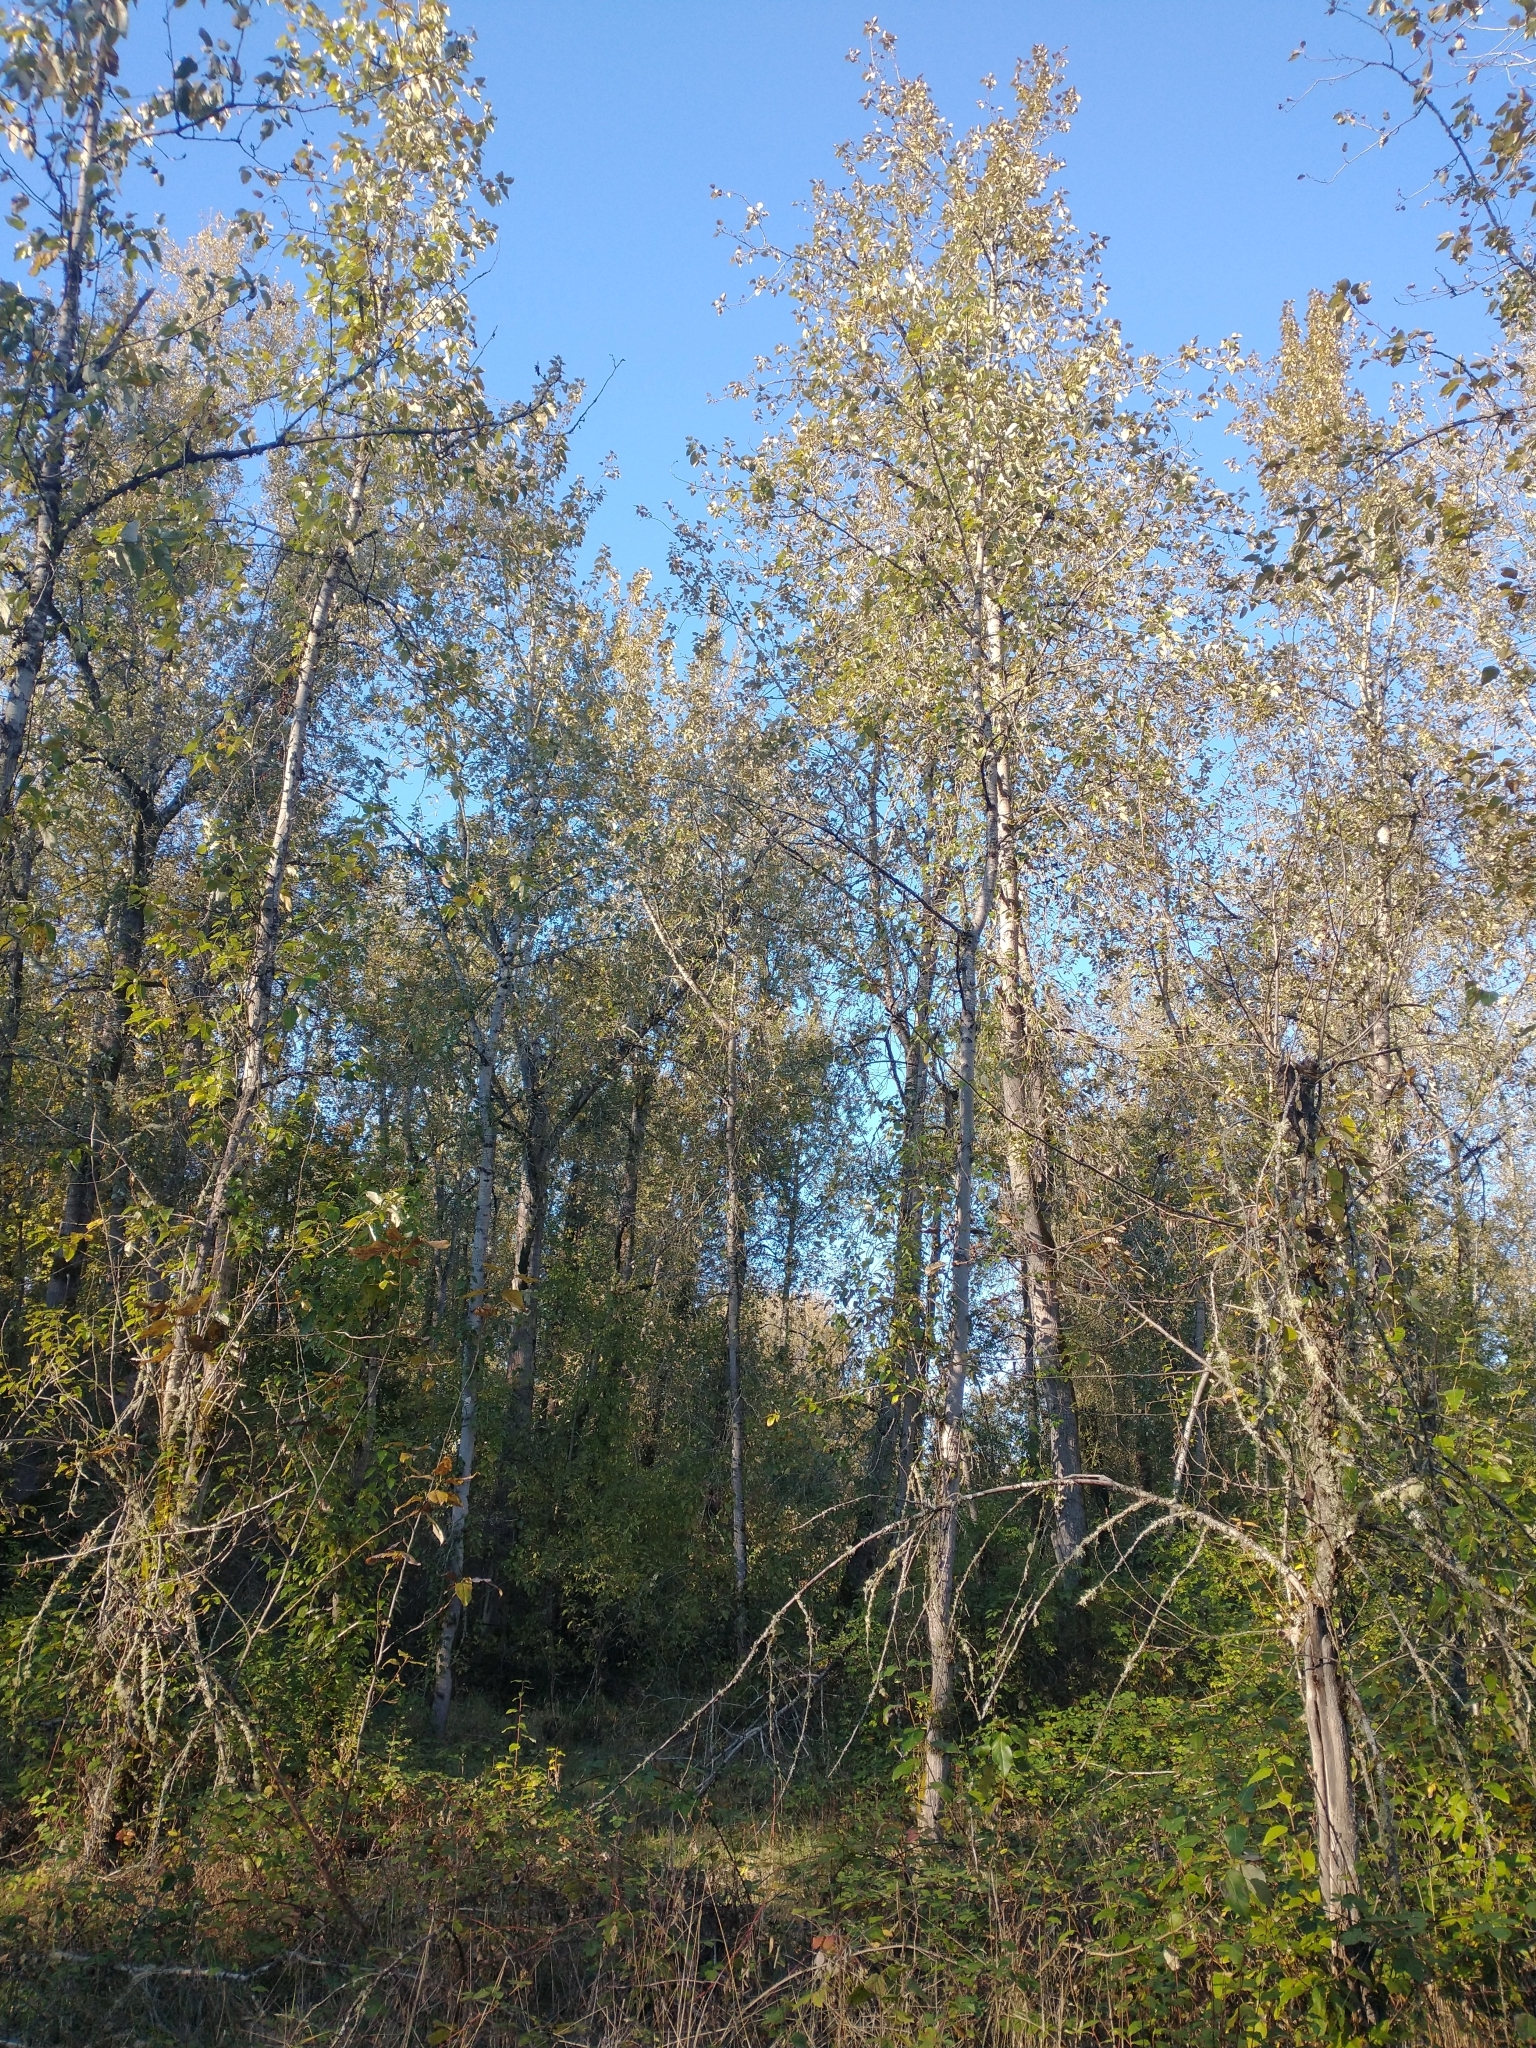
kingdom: Plantae
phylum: Tracheophyta
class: Magnoliopsida
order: Malpighiales
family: Salicaceae
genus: Populus
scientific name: Populus trichocarpa
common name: Black cottonwood
